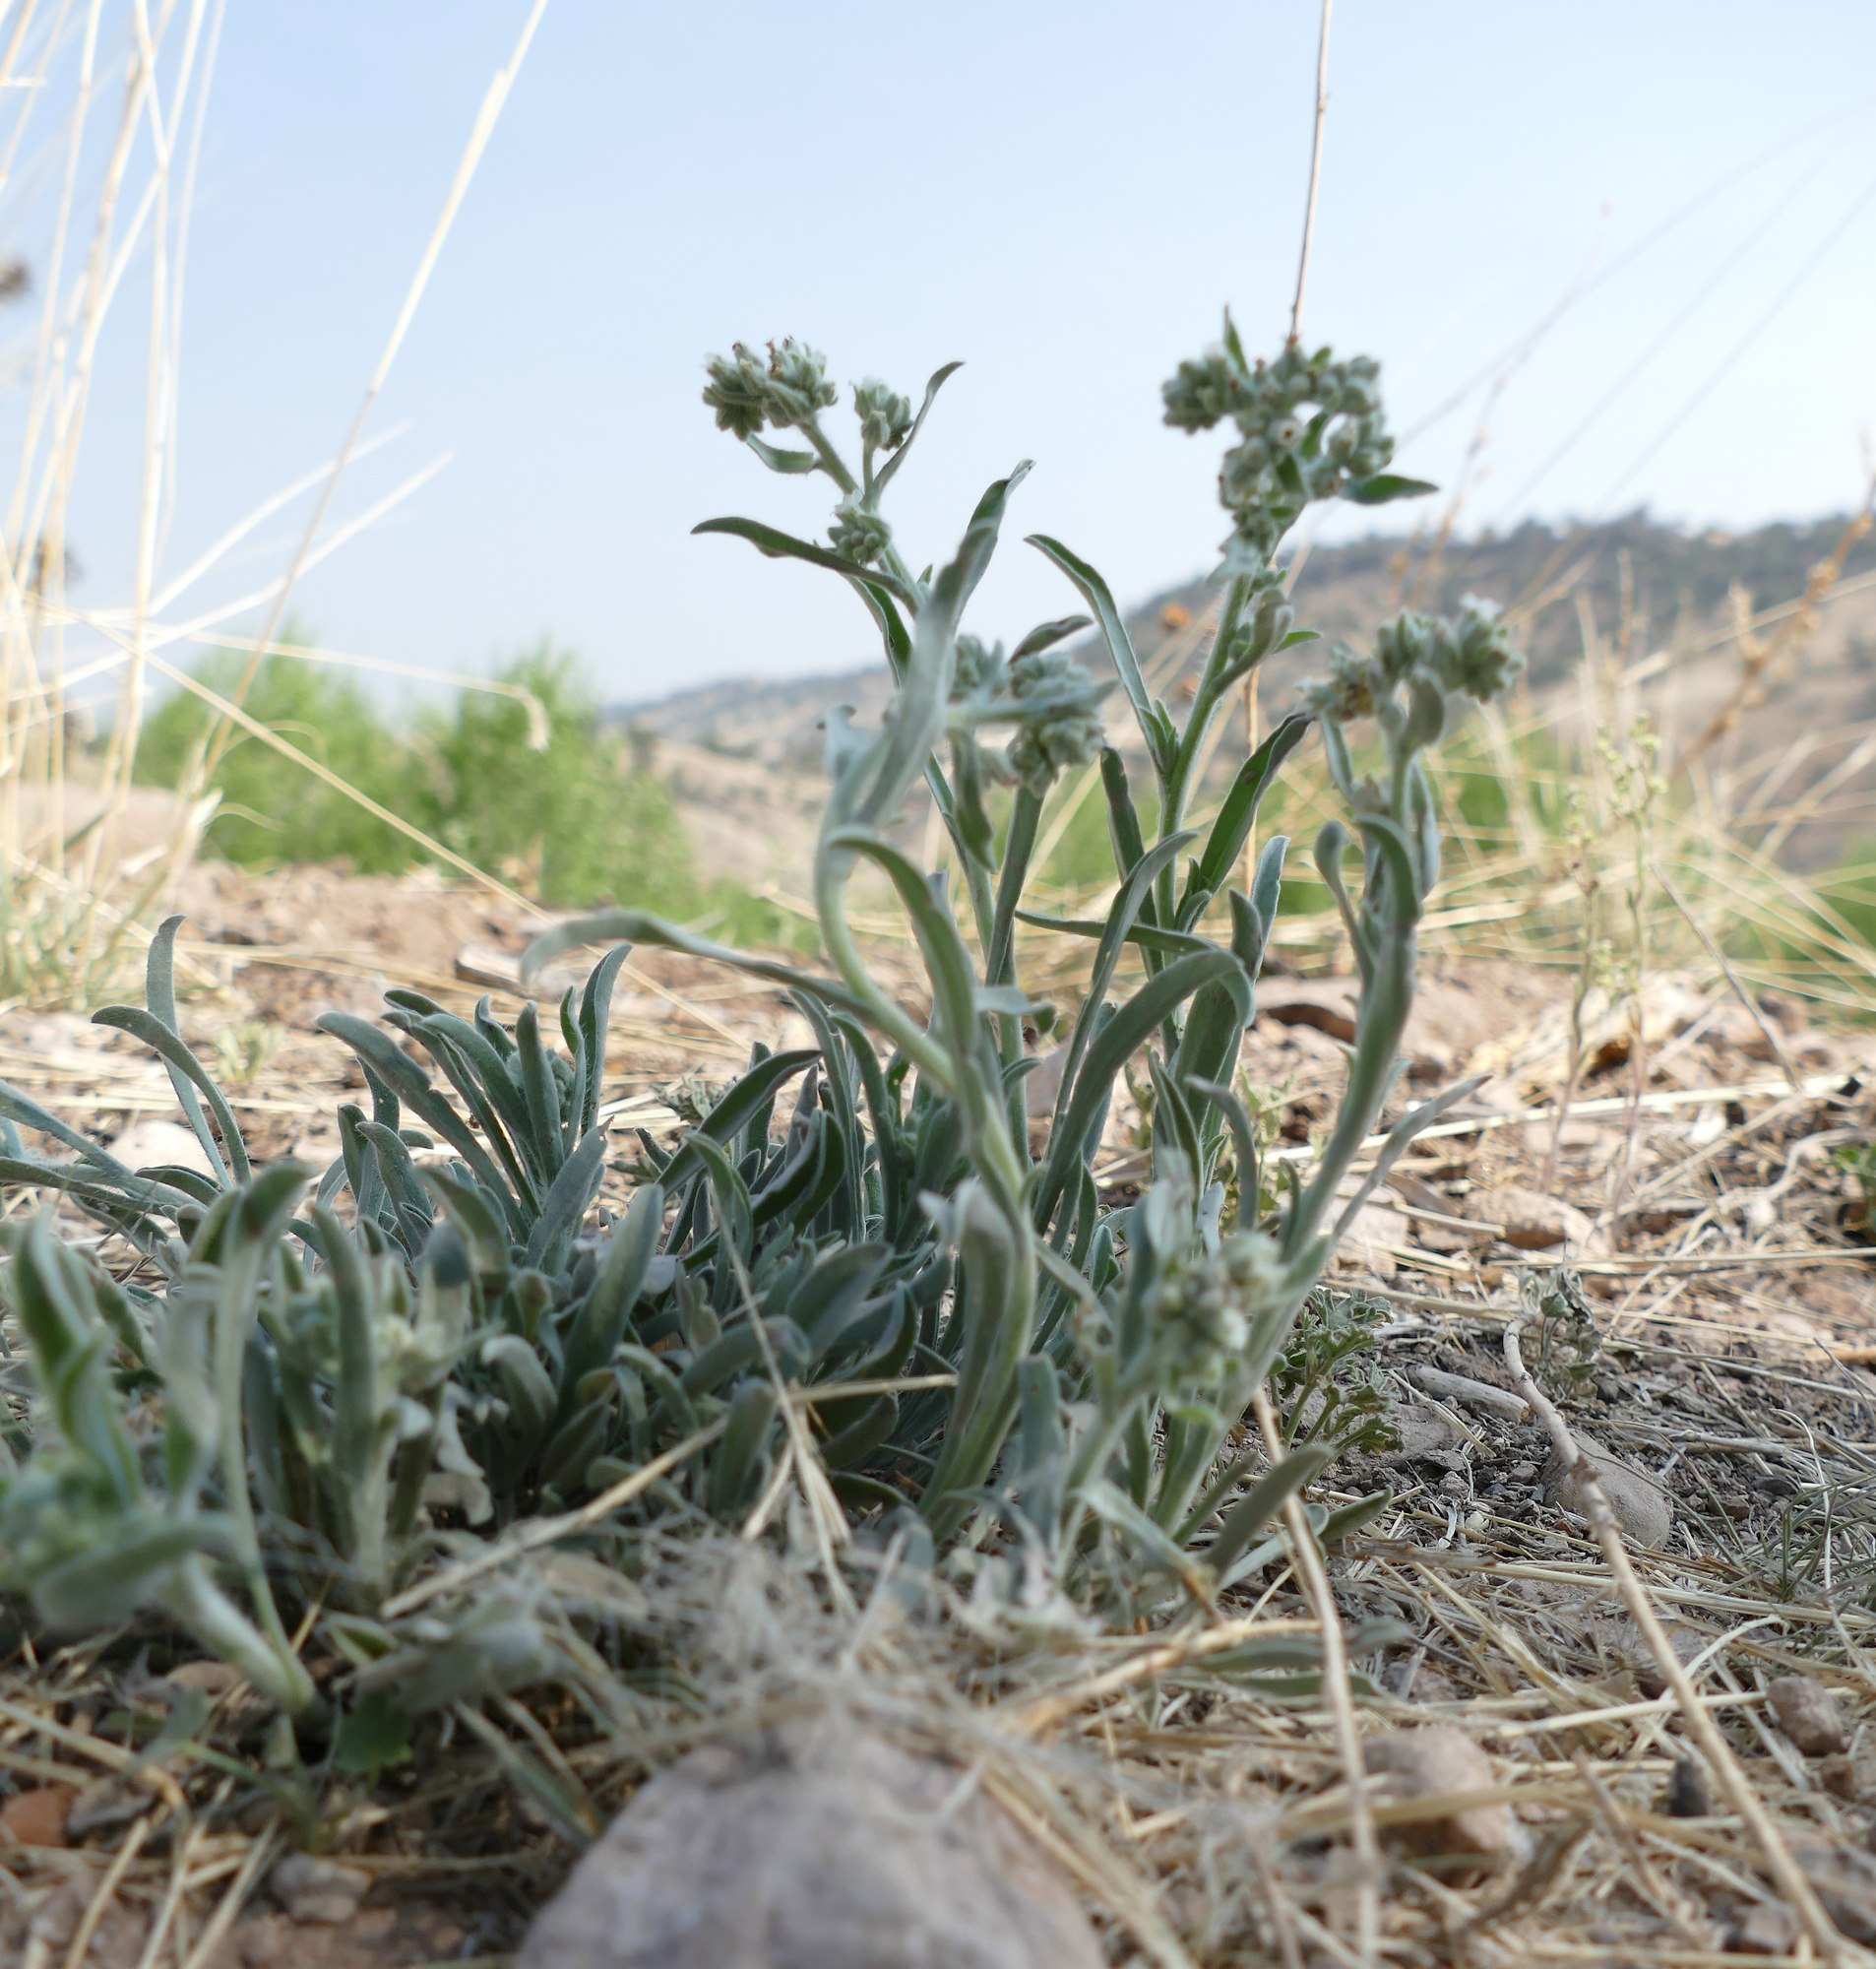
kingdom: Plantae
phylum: Tracheophyta
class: Magnoliopsida
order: Boraginales
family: Boraginaceae
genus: Oreocarya
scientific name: Oreocarya suffruticosa
